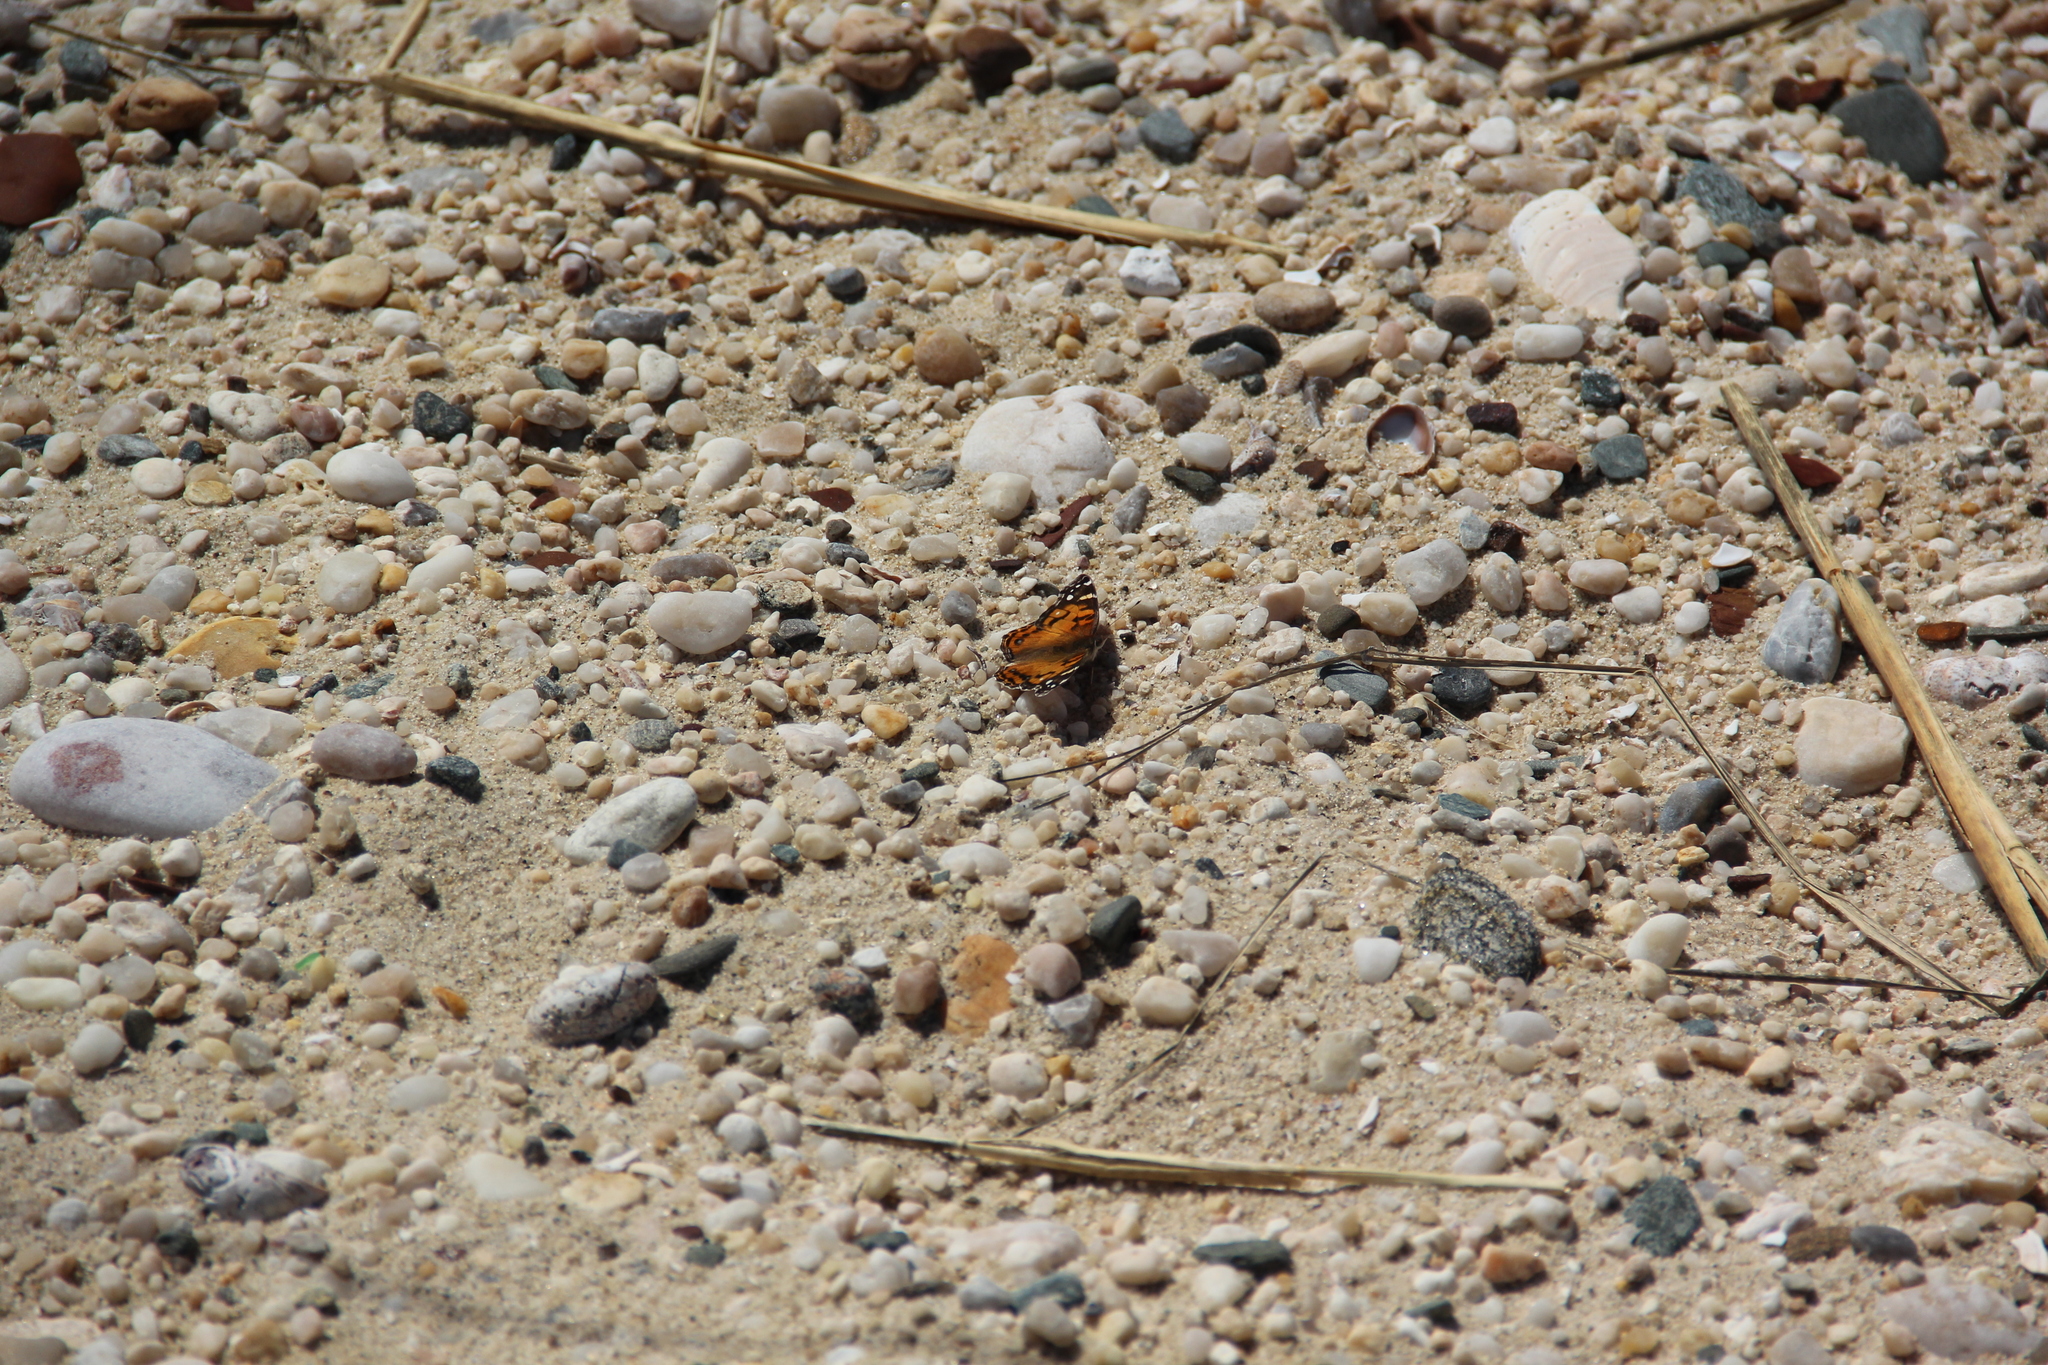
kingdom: Animalia
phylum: Arthropoda
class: Insecta
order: Lepidoptera
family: Nymphalidae
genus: Vanessa
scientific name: Vanessa virginiensis
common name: American lady
